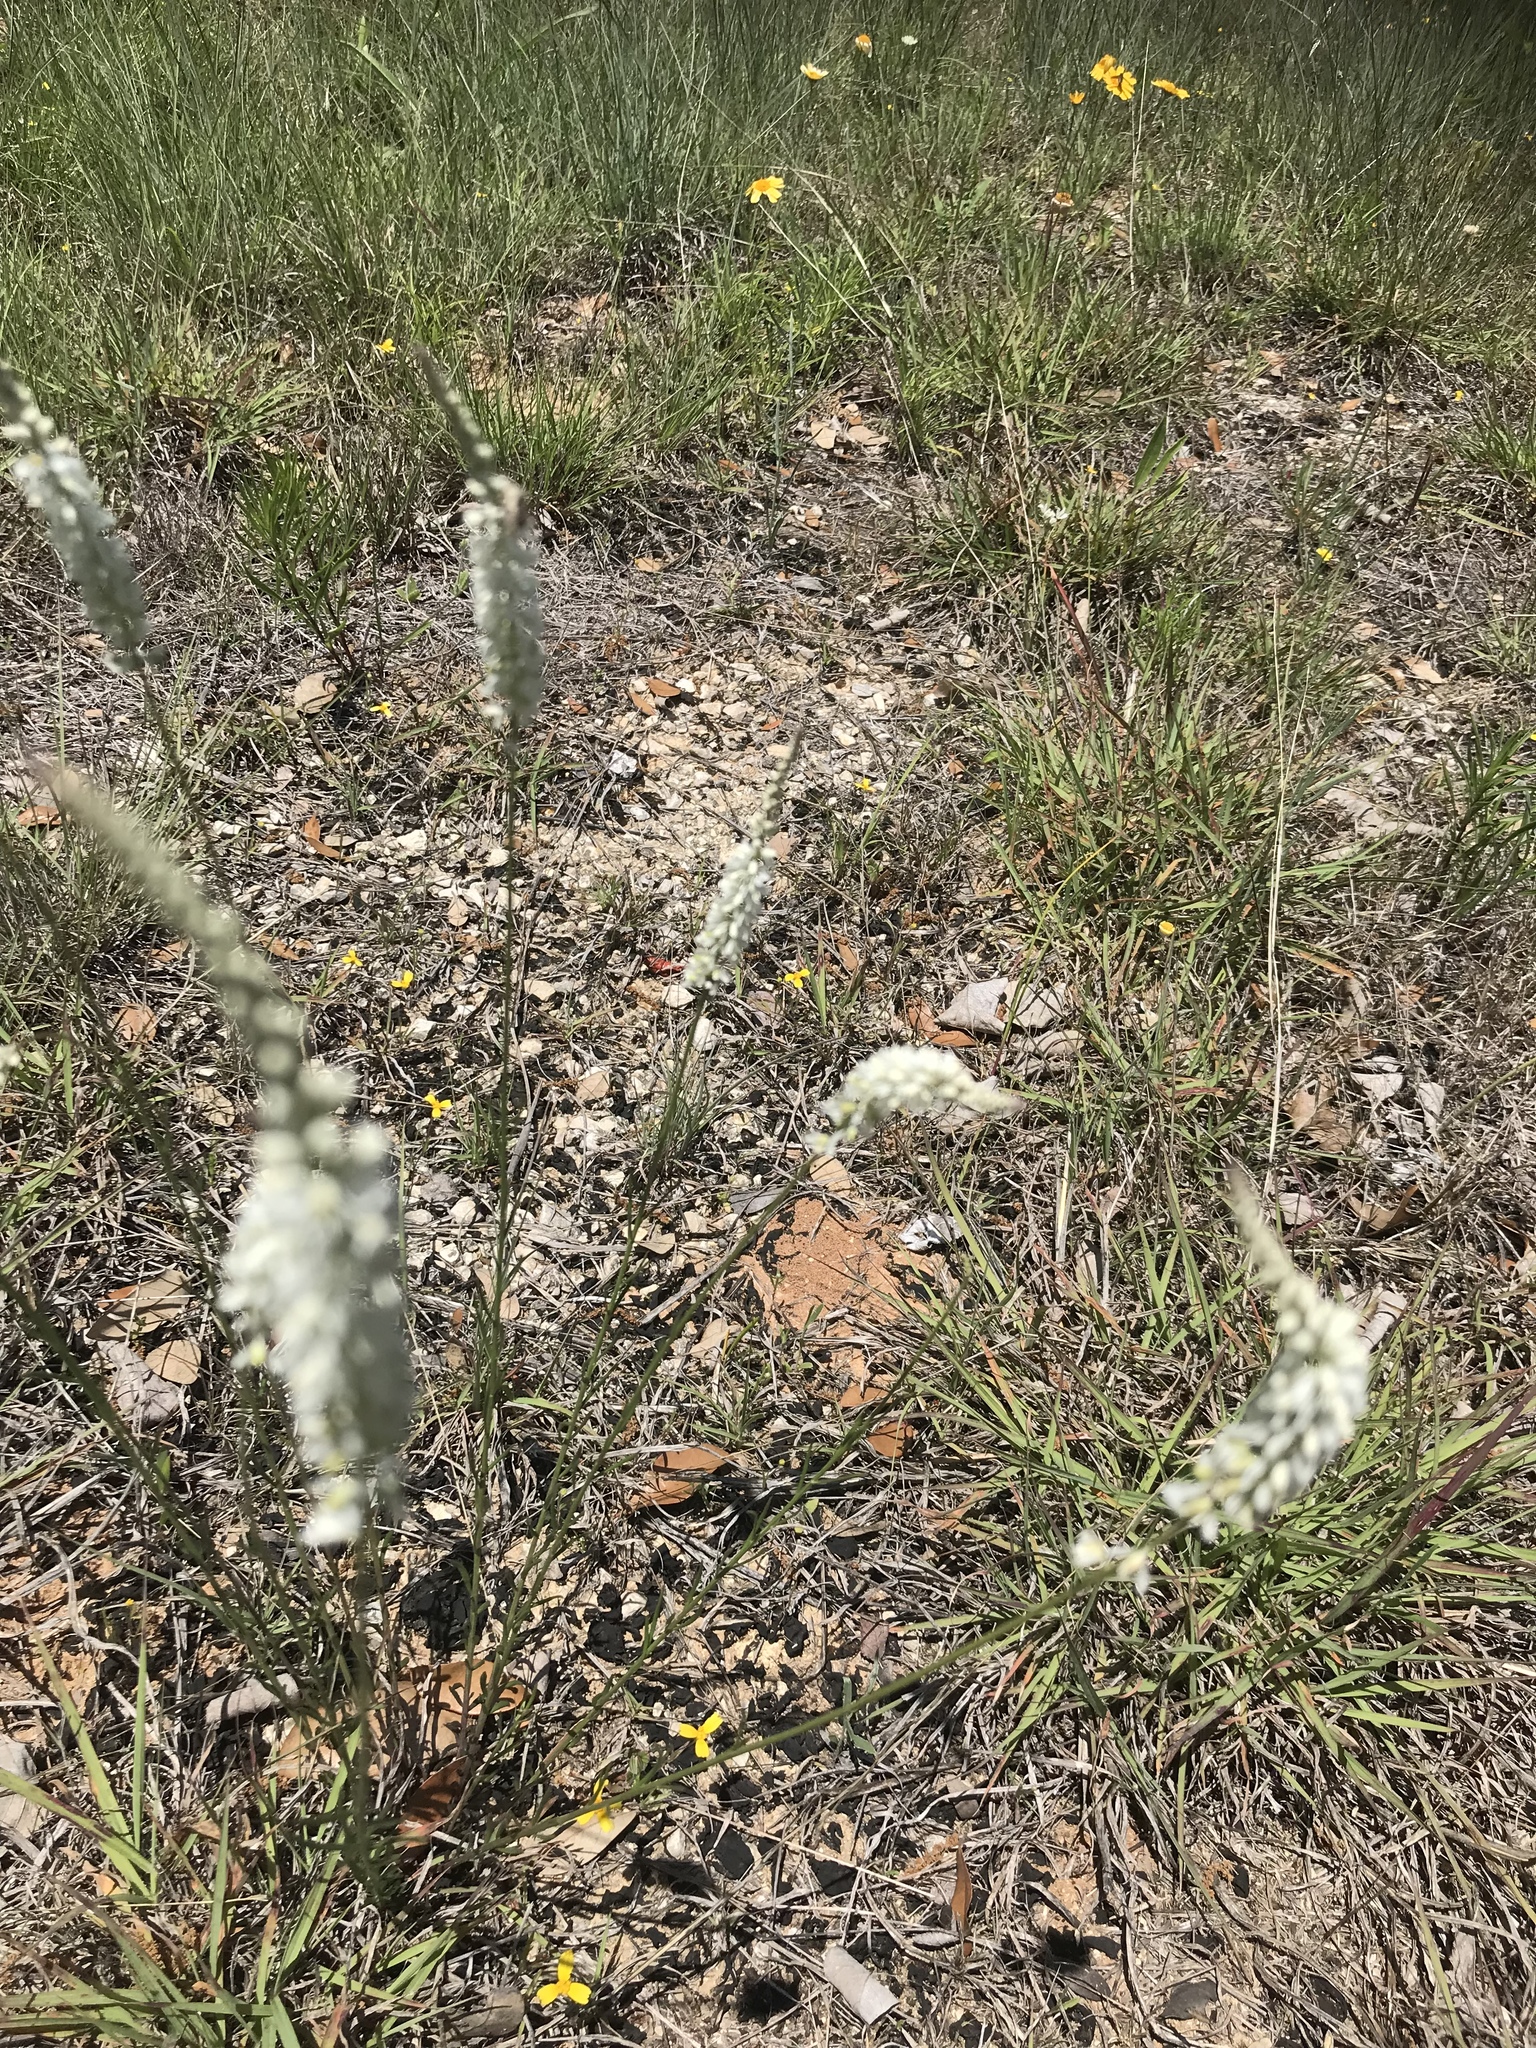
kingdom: Plantae
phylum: Tracheophyta
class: Magnoliopsida
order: Fabales
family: Polygalaceae
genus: Polygala
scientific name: Polygala alba
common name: White milkwort
